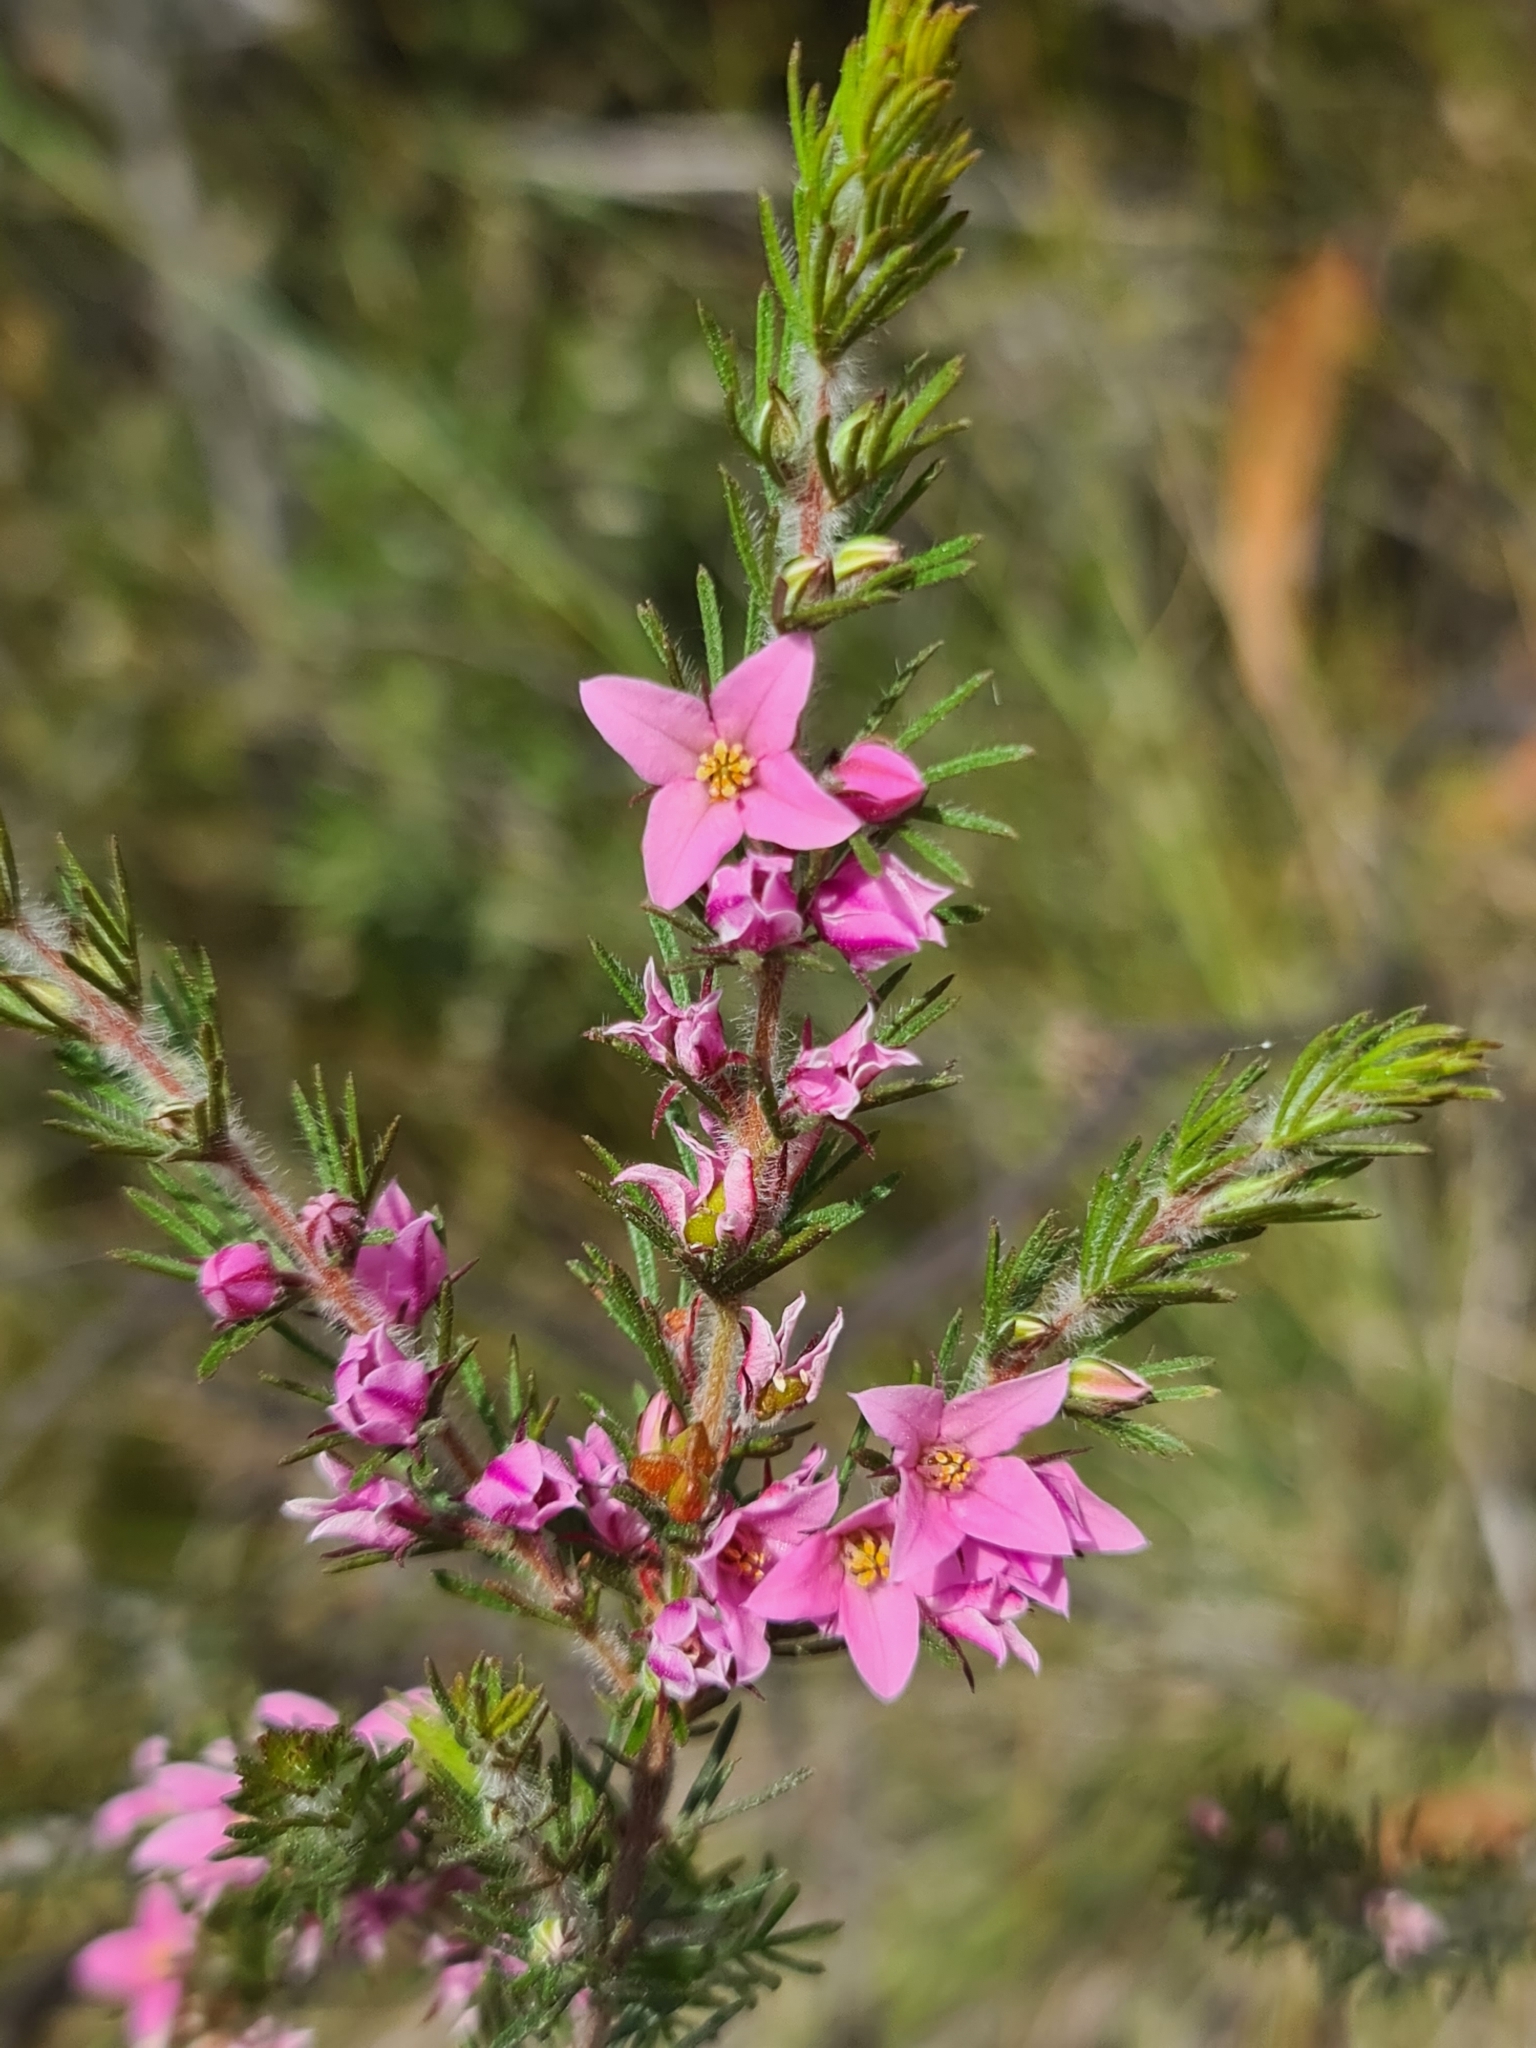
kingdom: Plantae
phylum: Tracheophyta
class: Magnoliopsida
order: Sapindales
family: Rutaceae
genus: Boronia
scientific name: Boronia stricta
